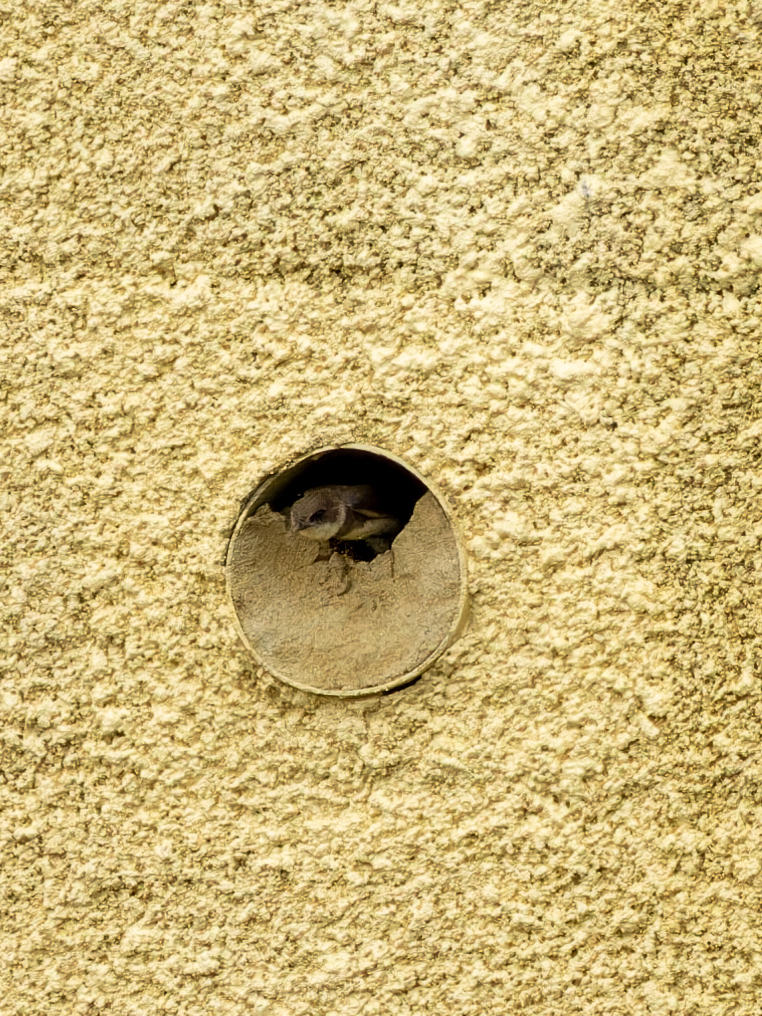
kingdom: Animalia
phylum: Chordata
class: Aves
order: Passeriformes
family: Hirundinidae
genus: Riparia
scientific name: Riparia riparia
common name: Sand martin
